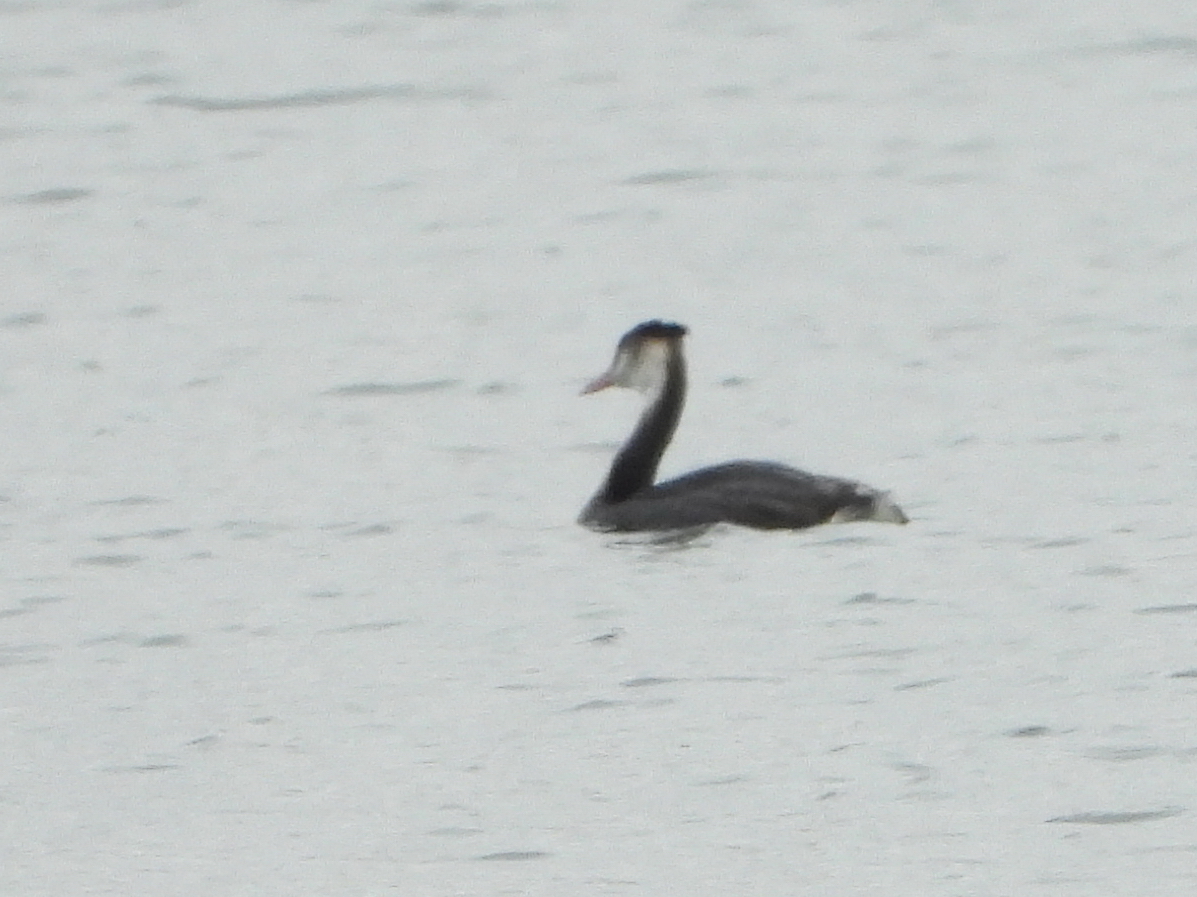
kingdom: Animalia
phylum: Chordata
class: Aves
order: Podicipediformes
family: Podicipedidae
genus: Podiceps
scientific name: Podiceps cristatus
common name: Great crested grebe
